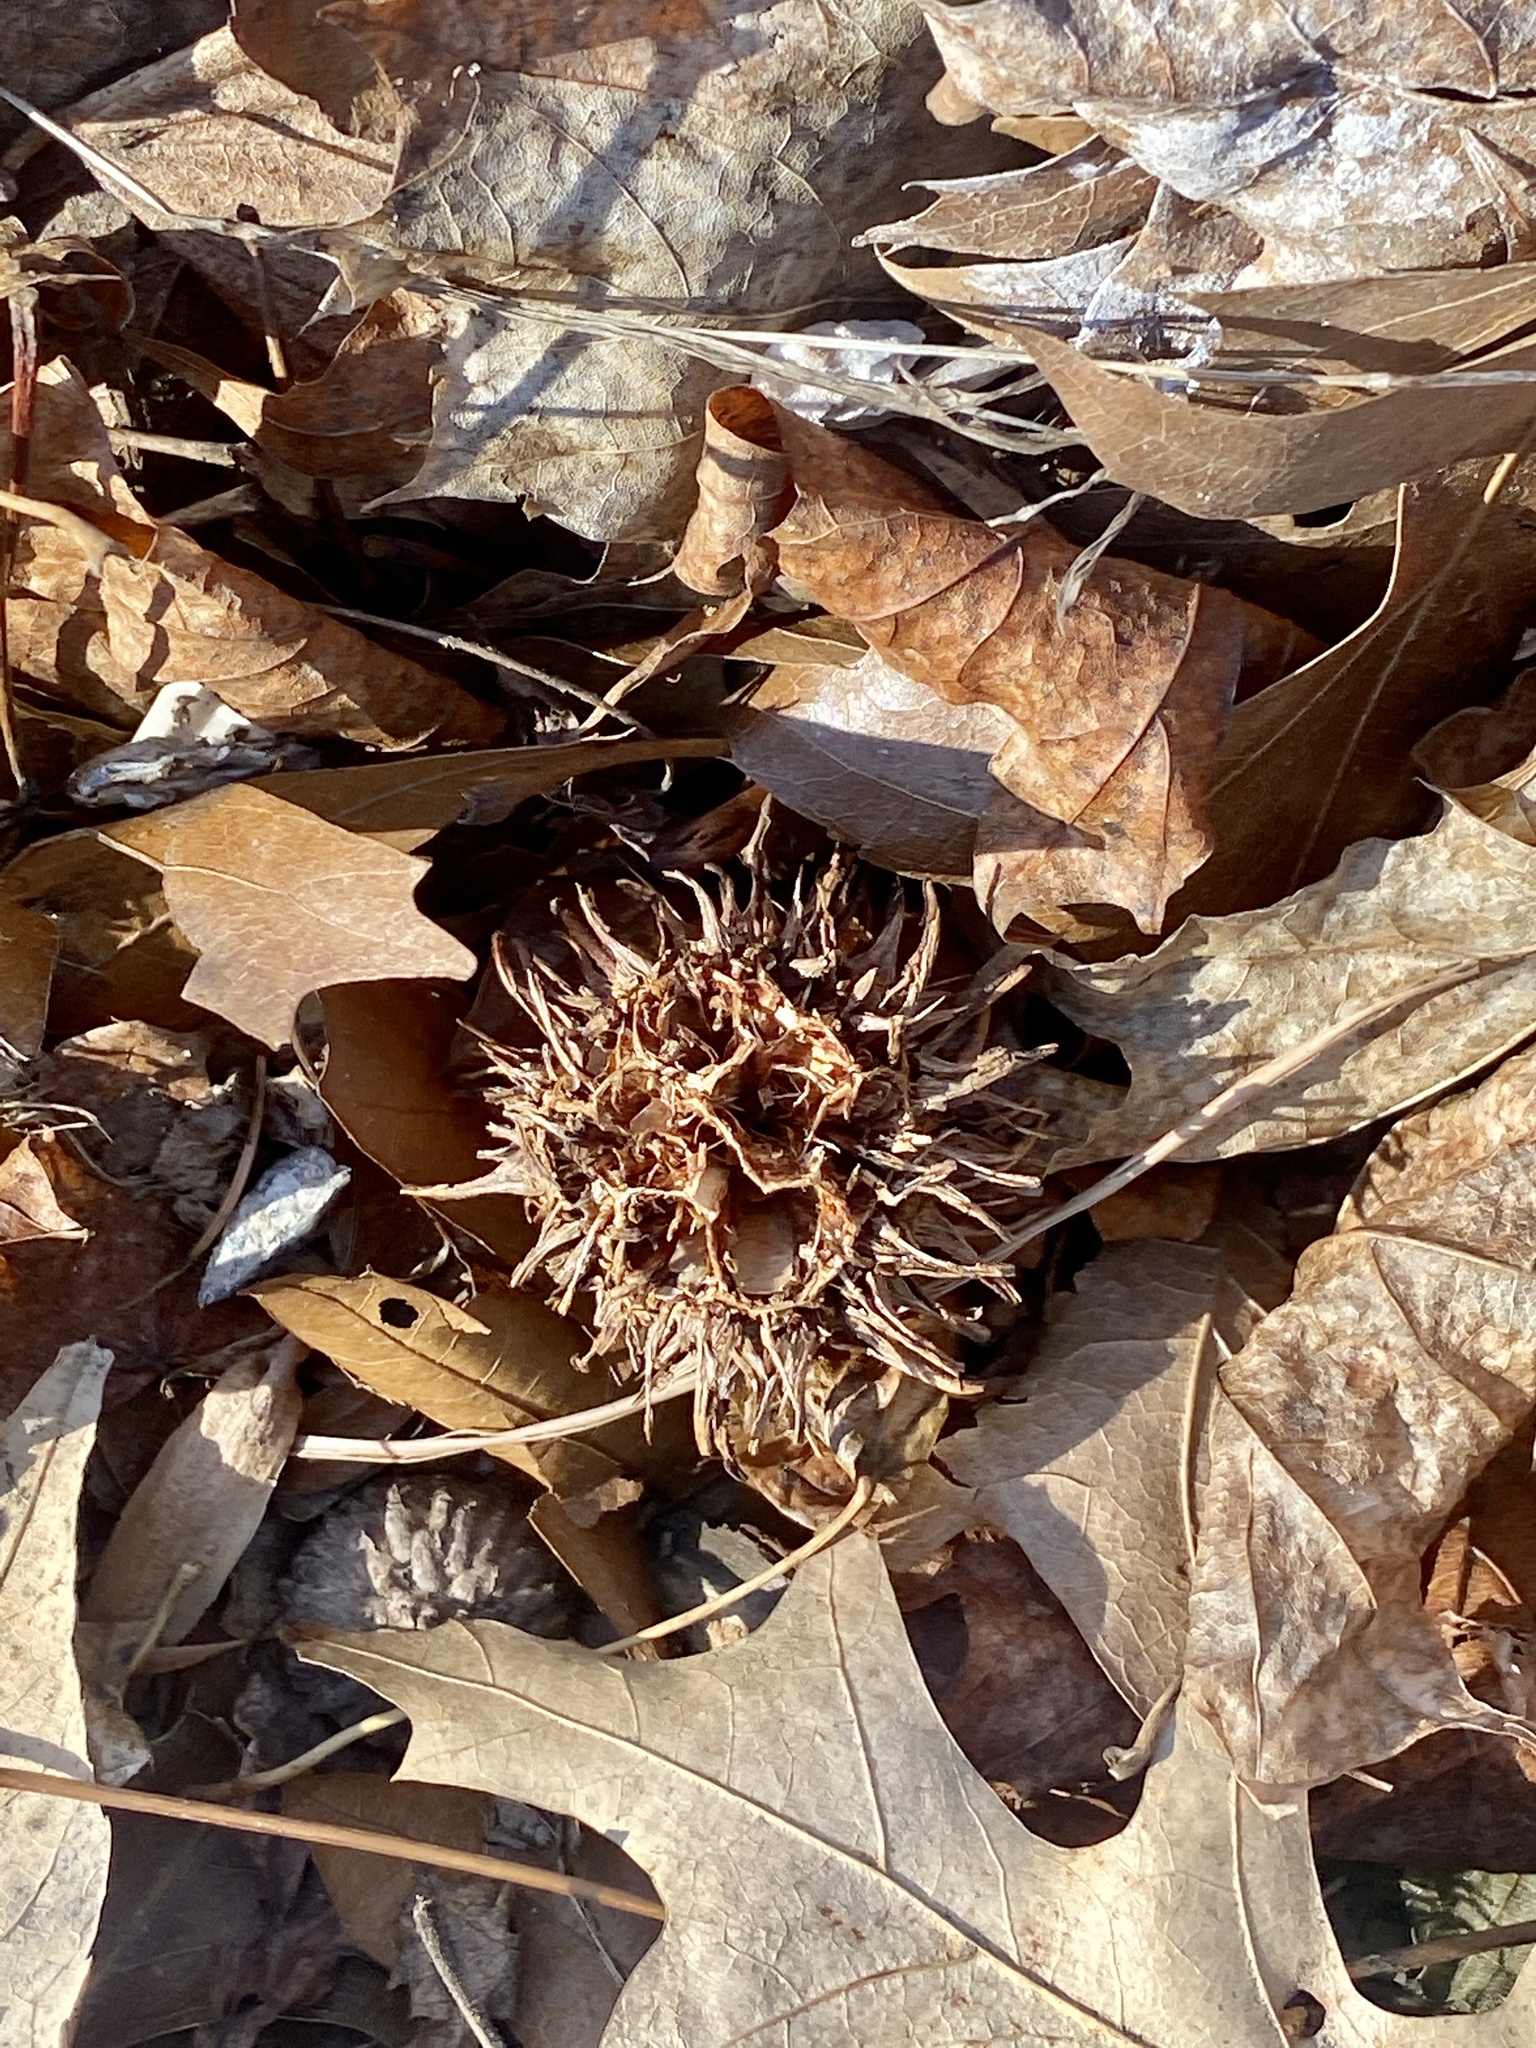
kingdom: Plantae
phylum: Tracheophyta
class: Magnoliopsida
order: Saxifragales
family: Altingiaceae
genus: Liquidambar
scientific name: Liquidambar styraciflua
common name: Sweet gum
